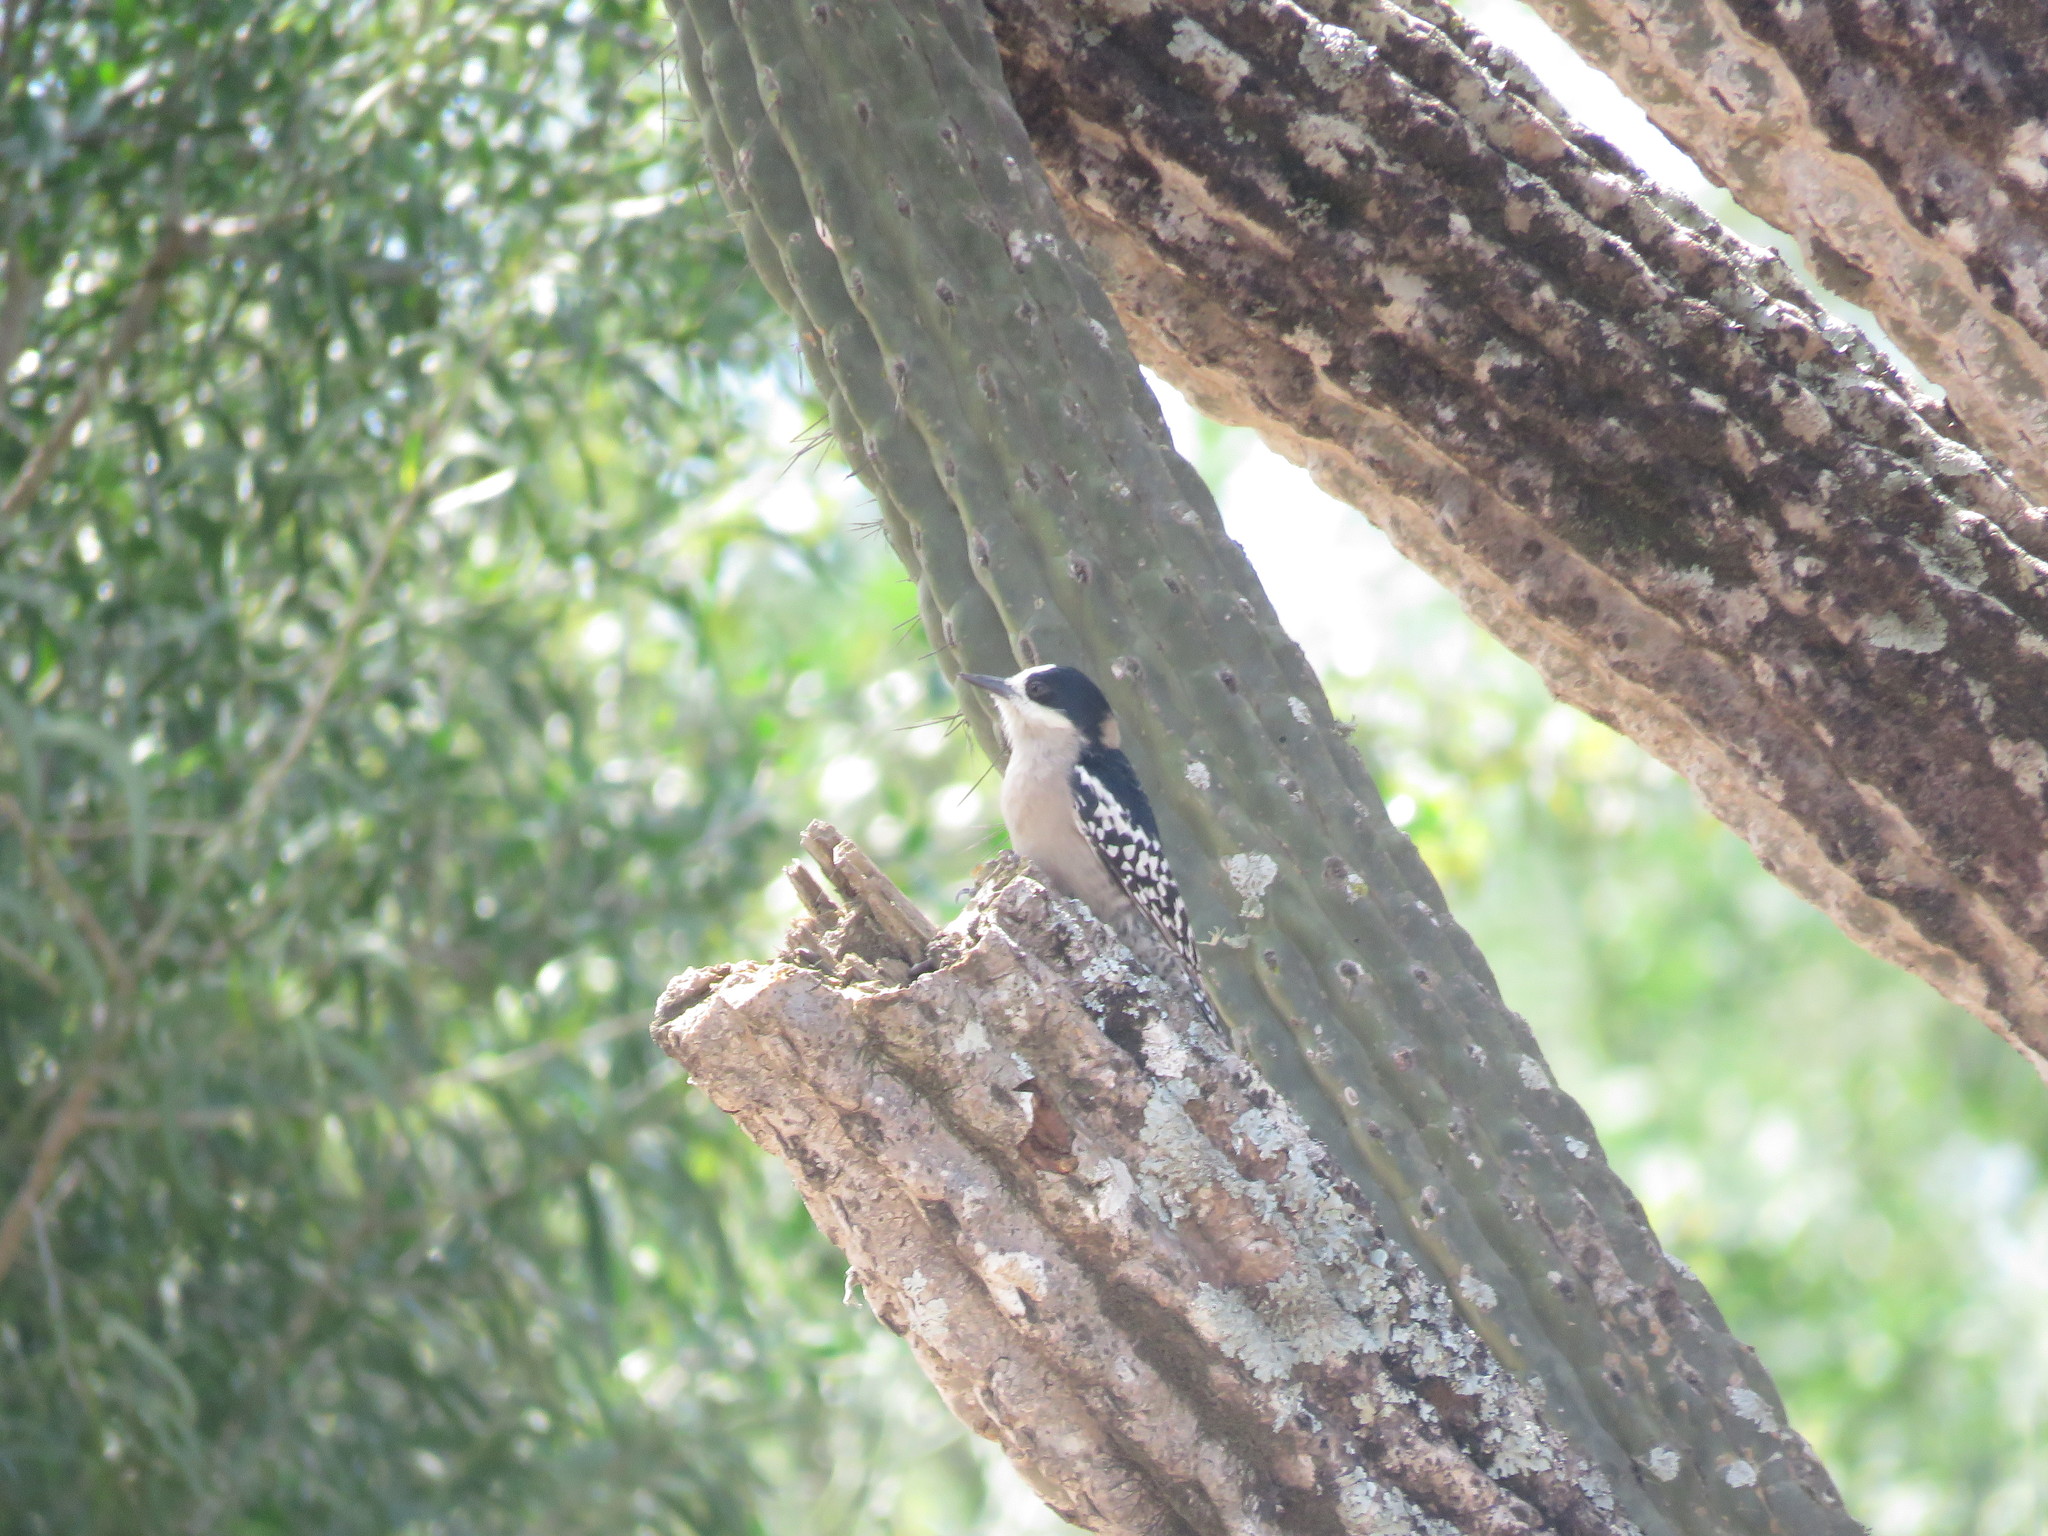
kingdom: Animalia
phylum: Chordata
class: Aves
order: Piciformes
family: Picidae
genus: Melanerpes
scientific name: Melanerpes cactorum
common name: White-fronted woodpecker
